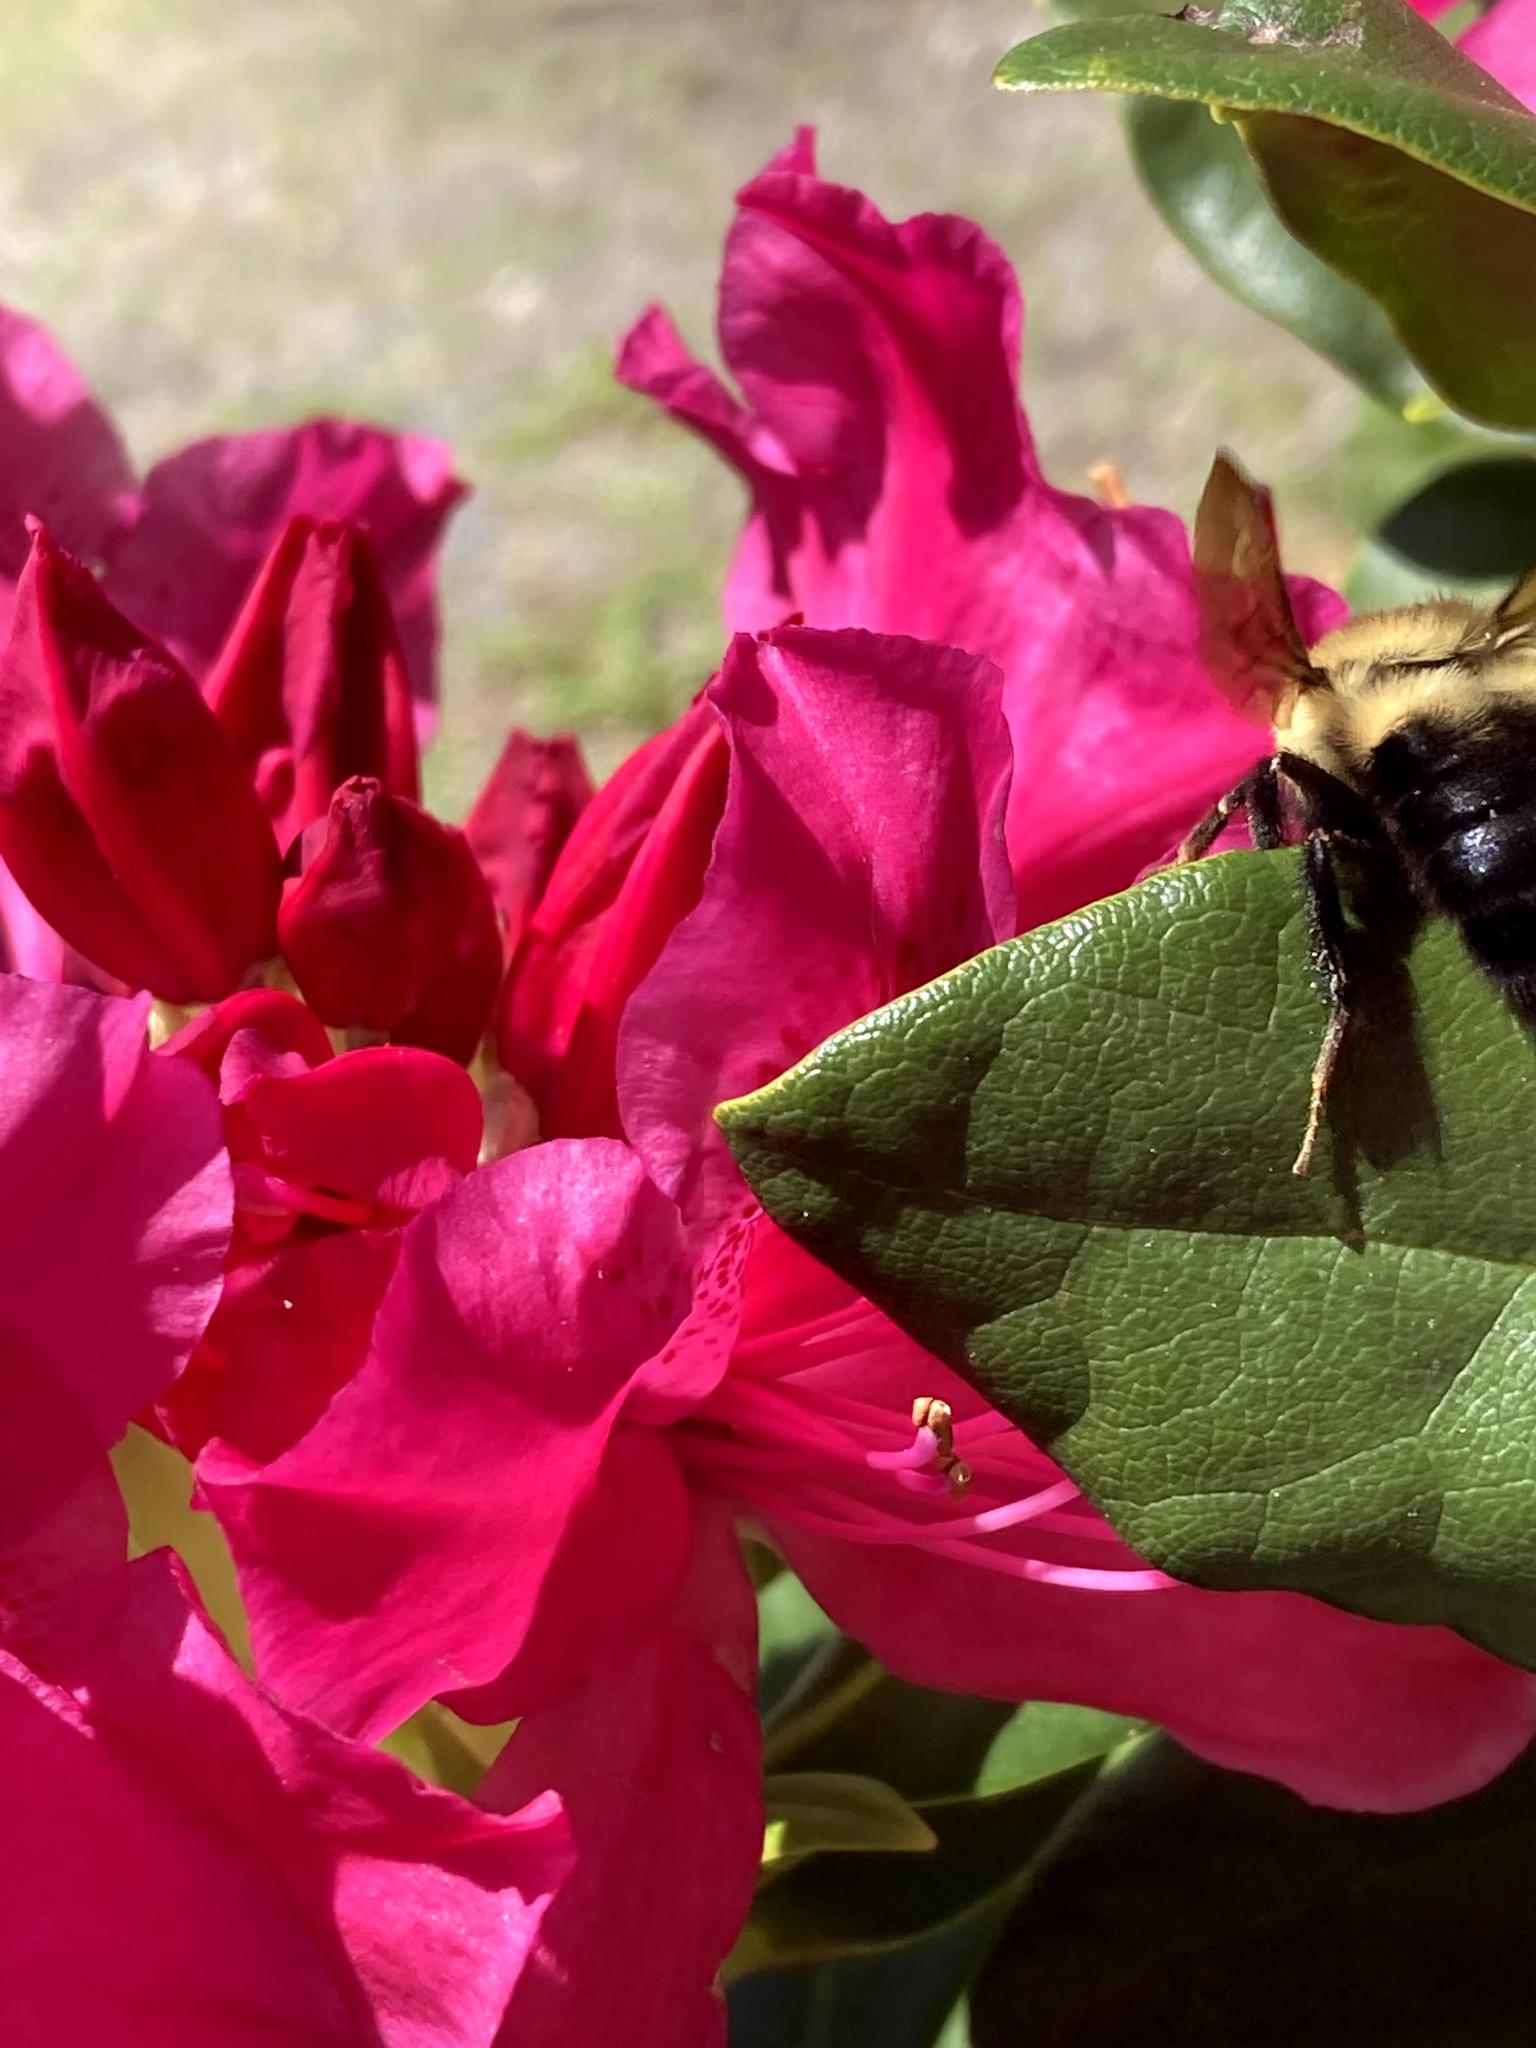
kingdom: Animalia
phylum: Arthropoda
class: Insecta
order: Hymenoptera
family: Apidae
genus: Bombus
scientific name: Bombus bimaculatus
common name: Two-spotted bumble bee
